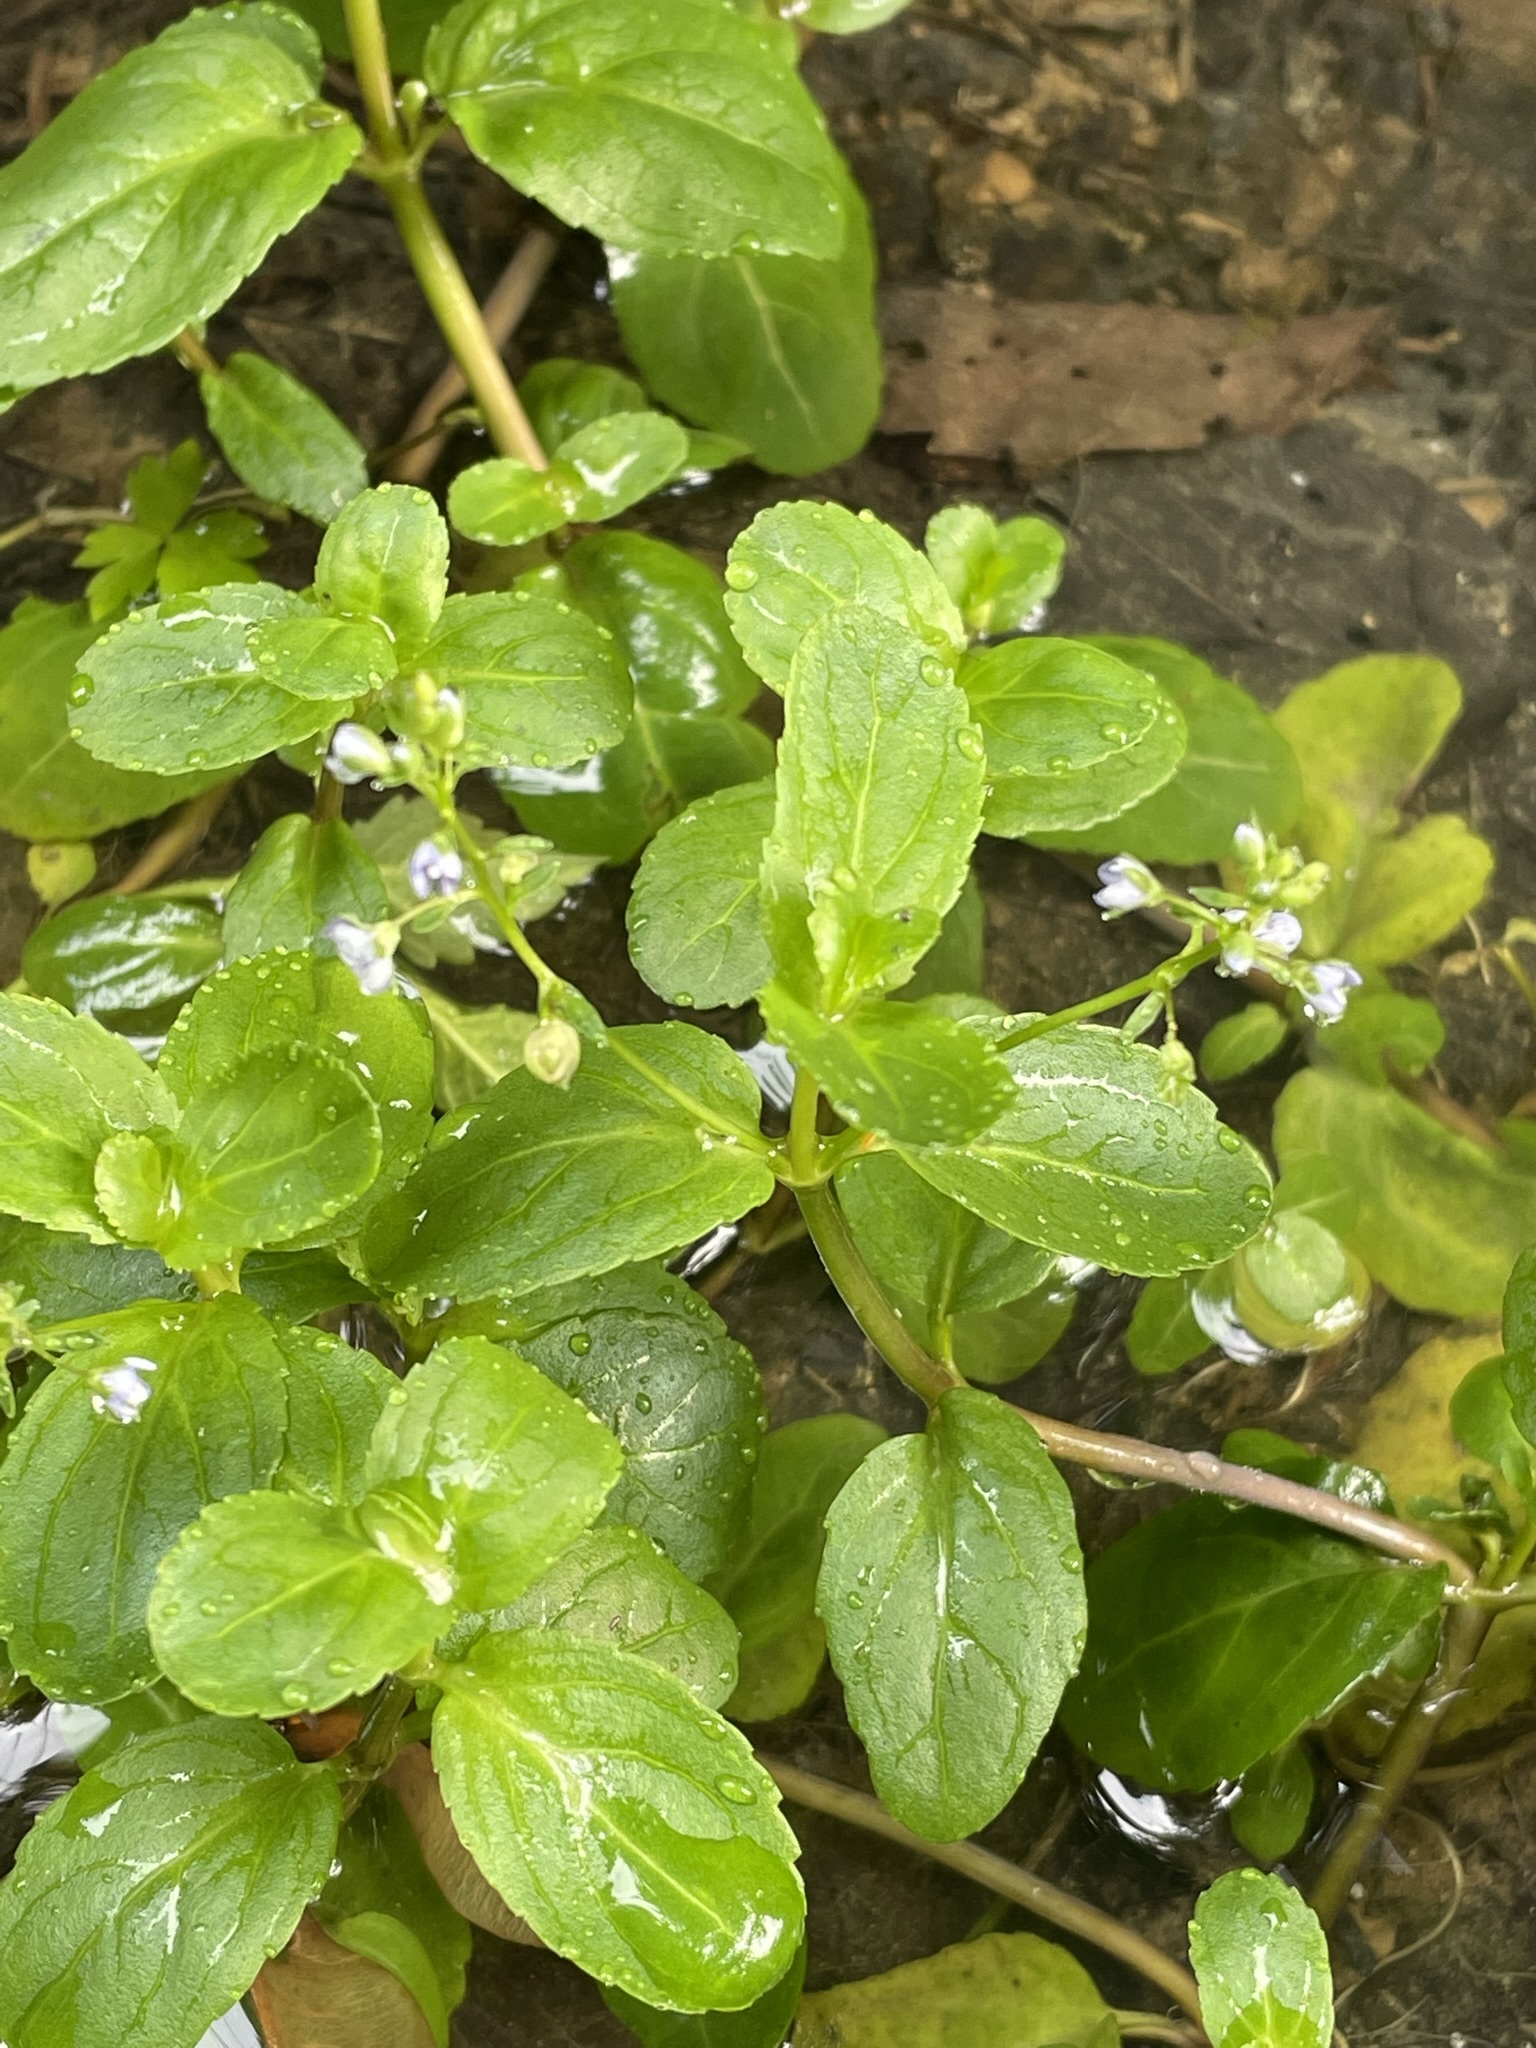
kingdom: Plantae
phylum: Tracheophyta
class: Magnoliopsida
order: Lamiales
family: Plantaginaceae
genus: Veronica
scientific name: Veronica beccabunga
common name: Brooklime
